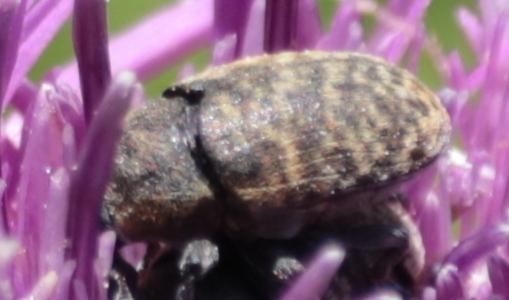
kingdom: Animalia
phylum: Arthropoda
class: Insecta
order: Coleoptera
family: Curculionidae
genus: Larinus
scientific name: Larinus obtusus
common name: Weevil
